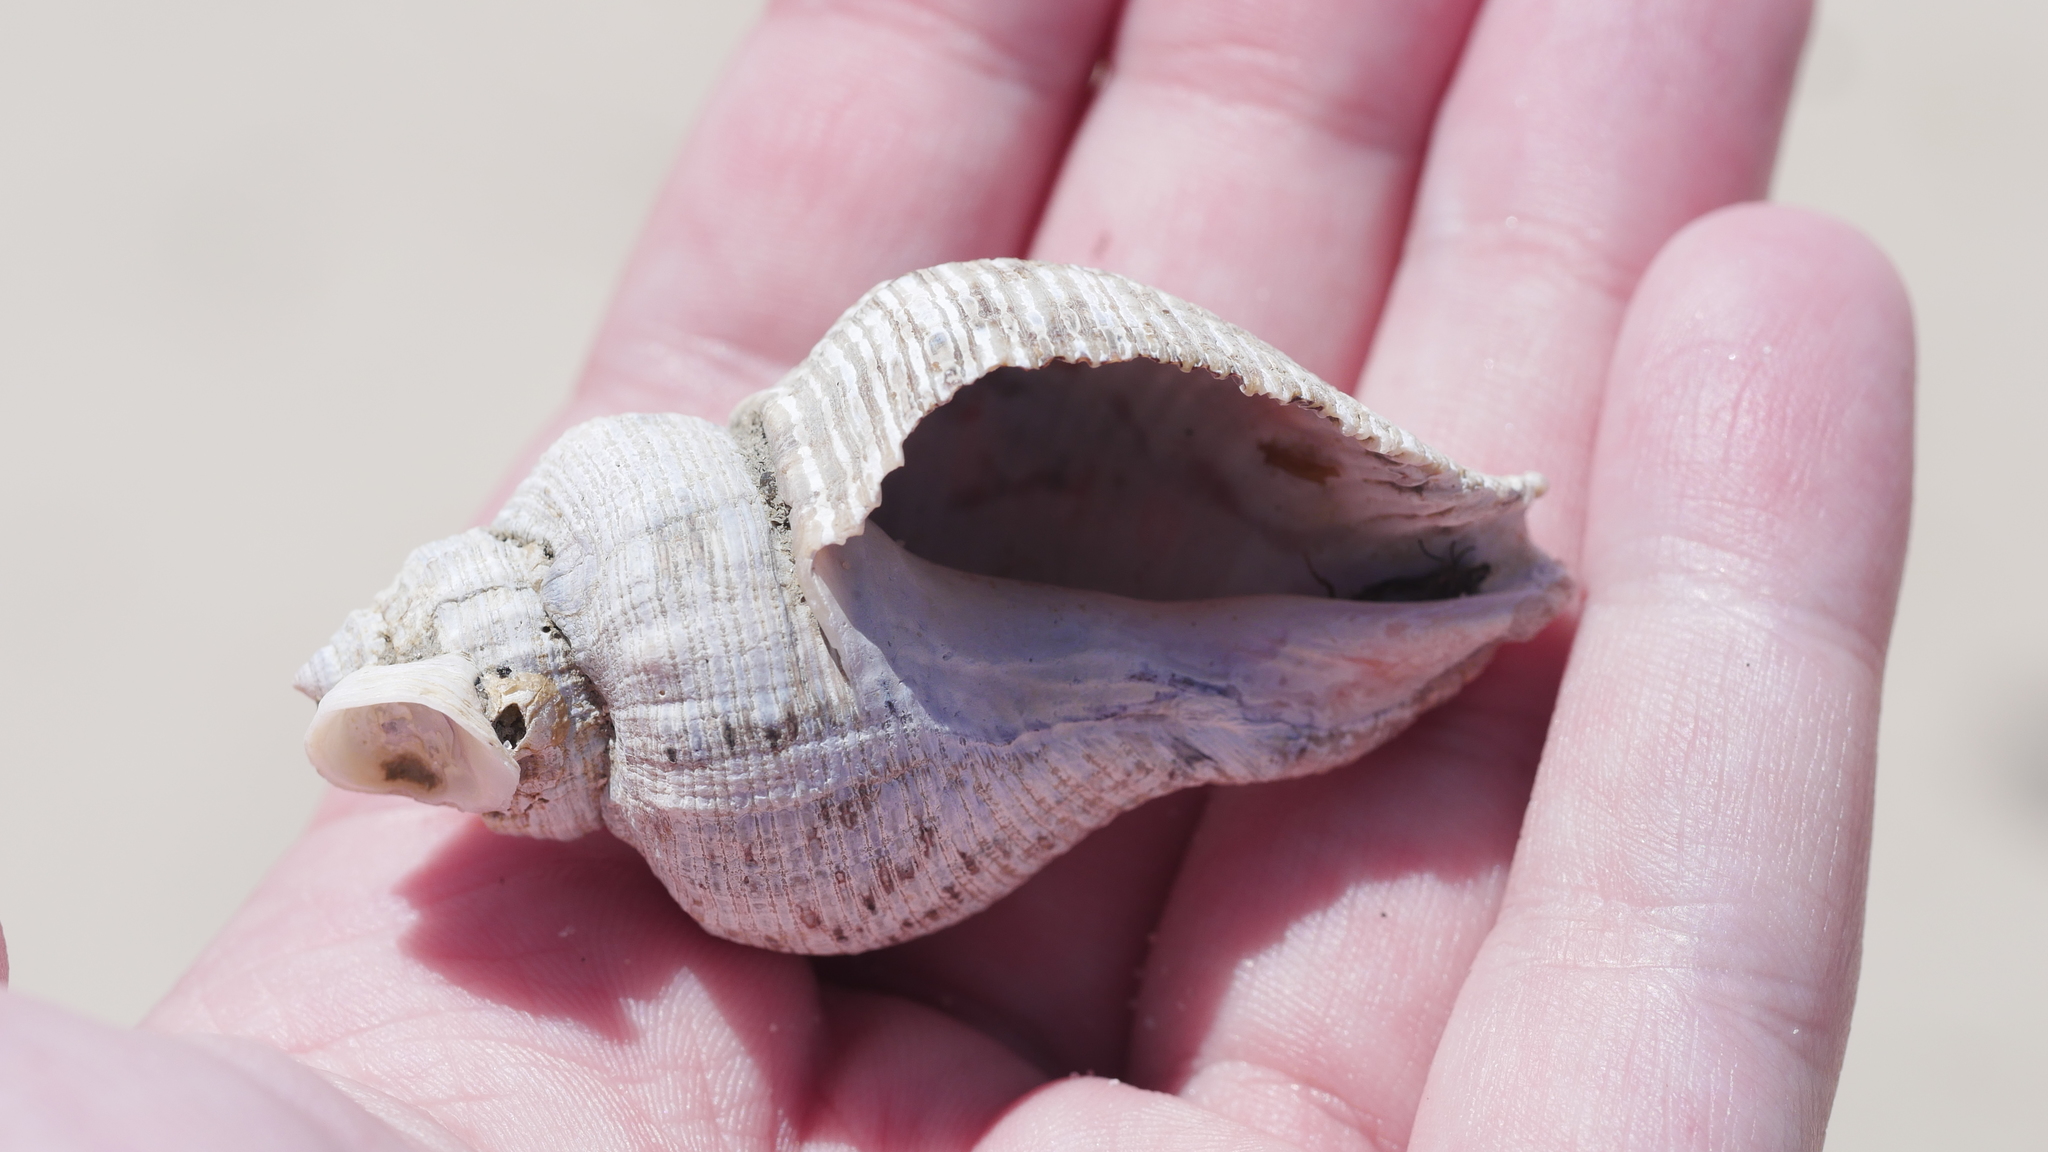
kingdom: Animalia
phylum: Mollusca
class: Gastropoda
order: Neogastropoda
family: Muricidae
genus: Stramonita
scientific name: Stramonita canaliculata
